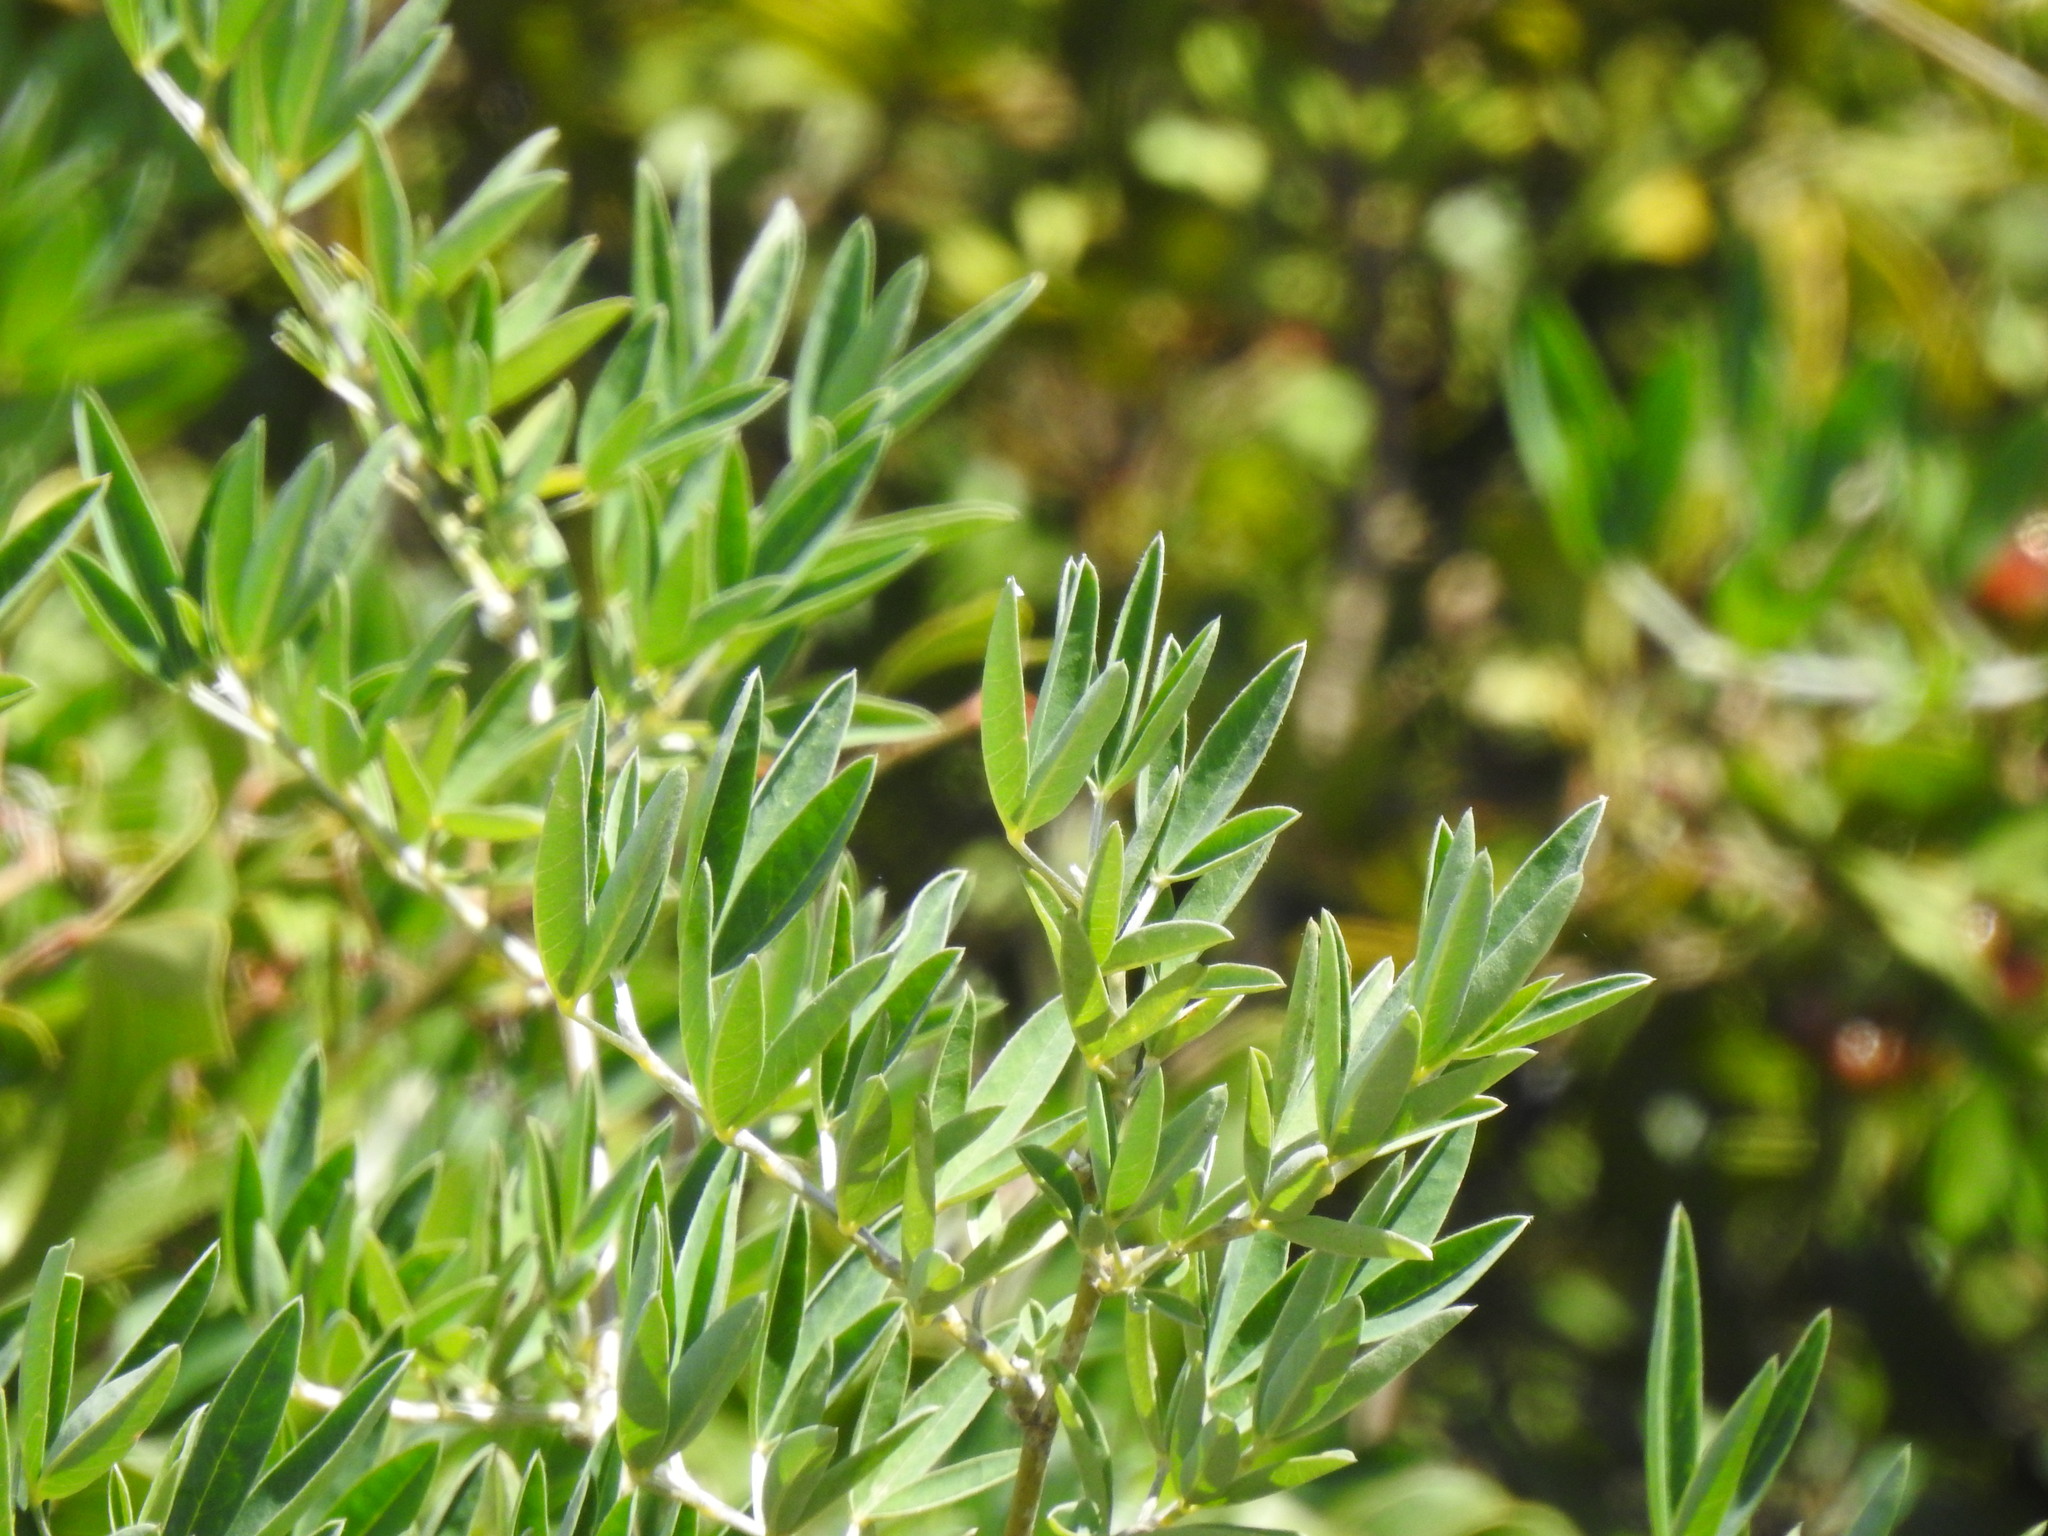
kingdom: Plantae
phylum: Tracheophyta
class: Magnoliopsida
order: Fabales
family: Fabaceae
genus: Anagyris
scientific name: Anagyris foetida
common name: Stinking bean trefoil
